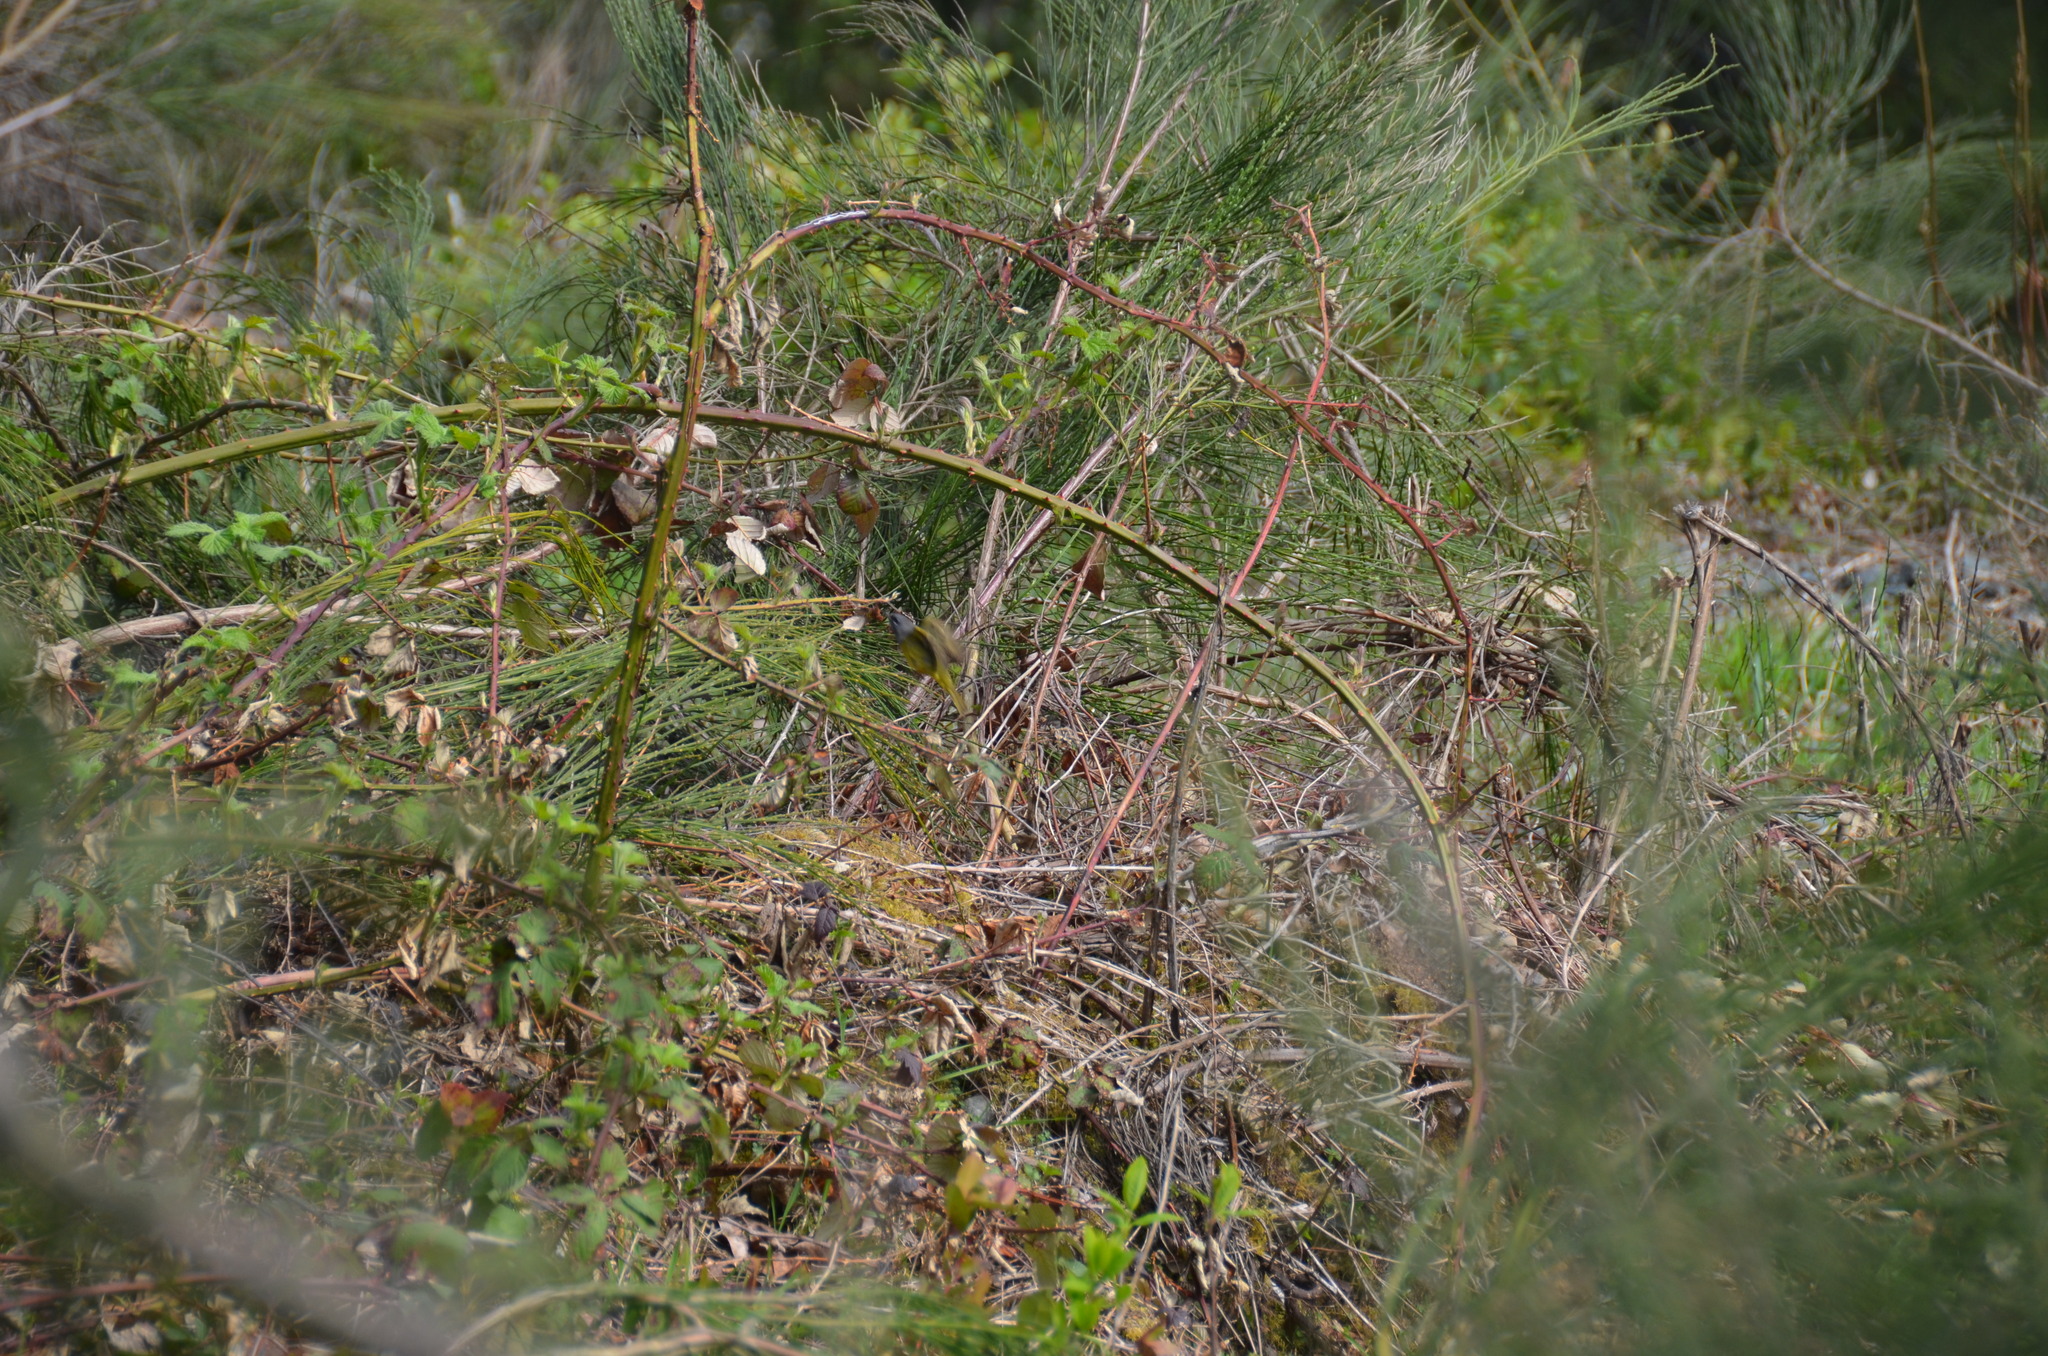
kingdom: Animalia
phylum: Chordata
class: Aves
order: Passeriformes
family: Parulidae
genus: Geothlypis
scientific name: Geothlypis tolmiei
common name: Macgillivray's warbler
